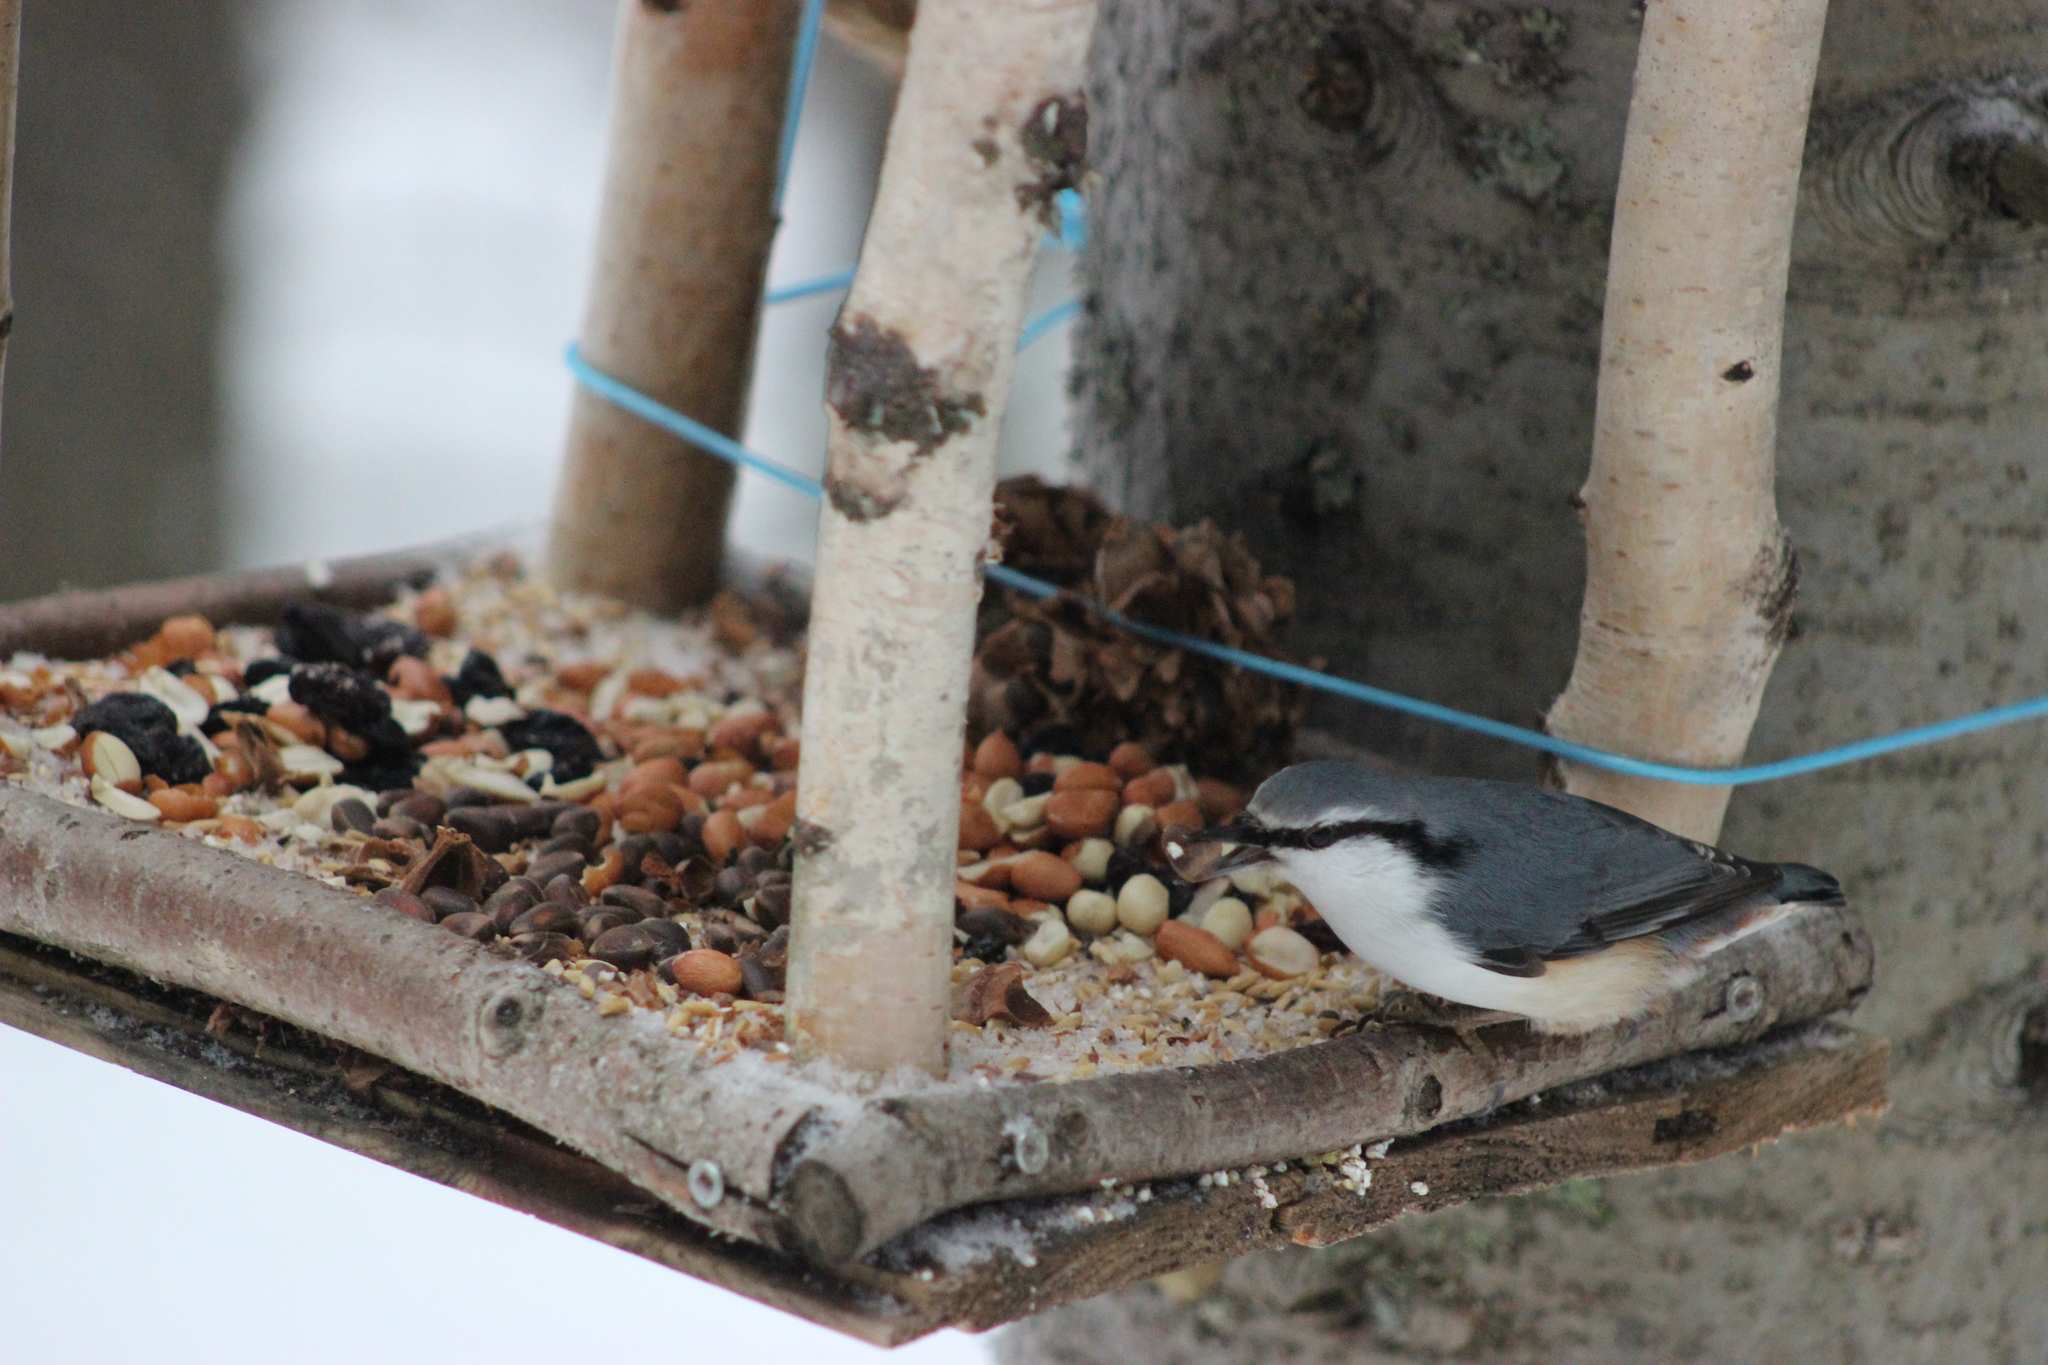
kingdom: Animalia
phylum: Chordata
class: Aves
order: Passeriformes
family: Sittidae
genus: Sitta
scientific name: Sitta europaea
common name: Eurasian nuthatch
